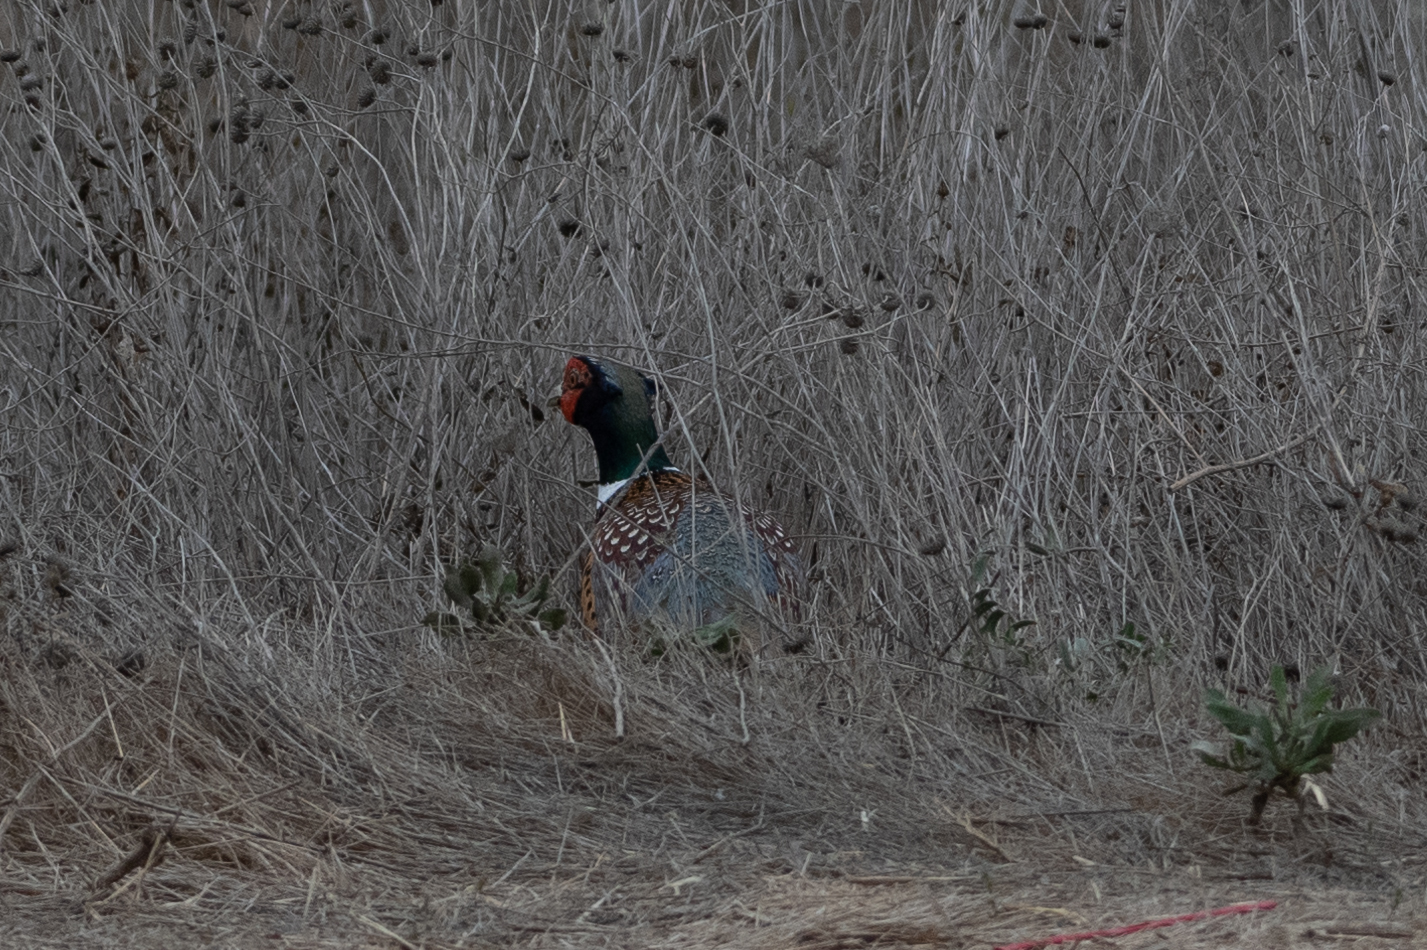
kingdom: Animalia
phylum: Chordata
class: Aves
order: Galliformes
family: Phasianidae
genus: Phasianus
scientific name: Phasianus colchicus
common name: Common pheasant
